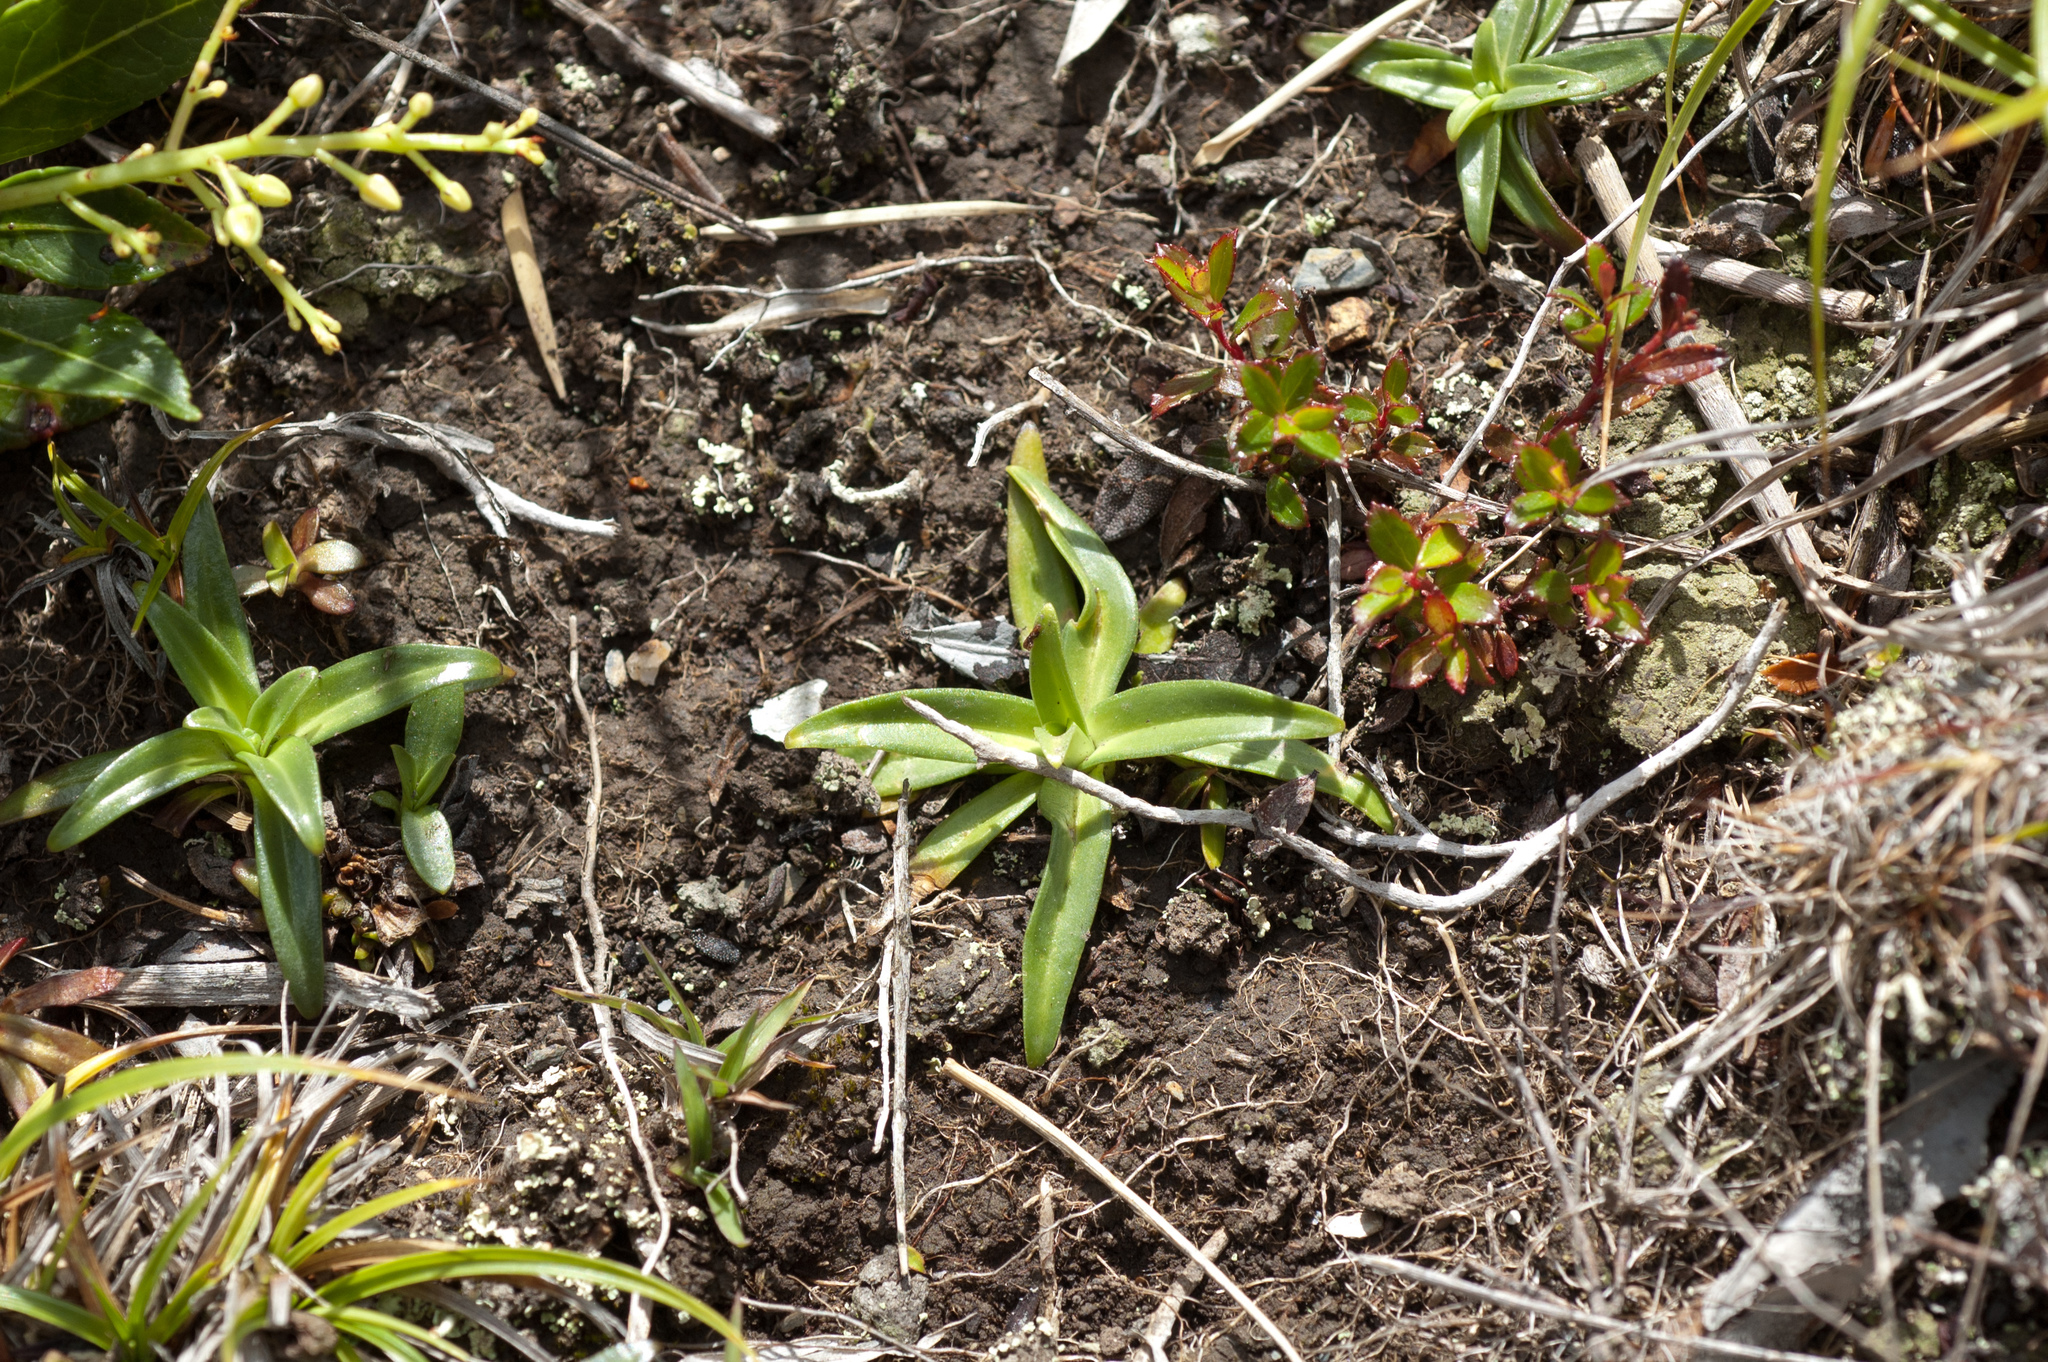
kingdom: Plantae
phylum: Tracheophyta
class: Liliopsida
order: Liliales
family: Melanthiaceae
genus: Veratrum
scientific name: Veratrum formosanum
